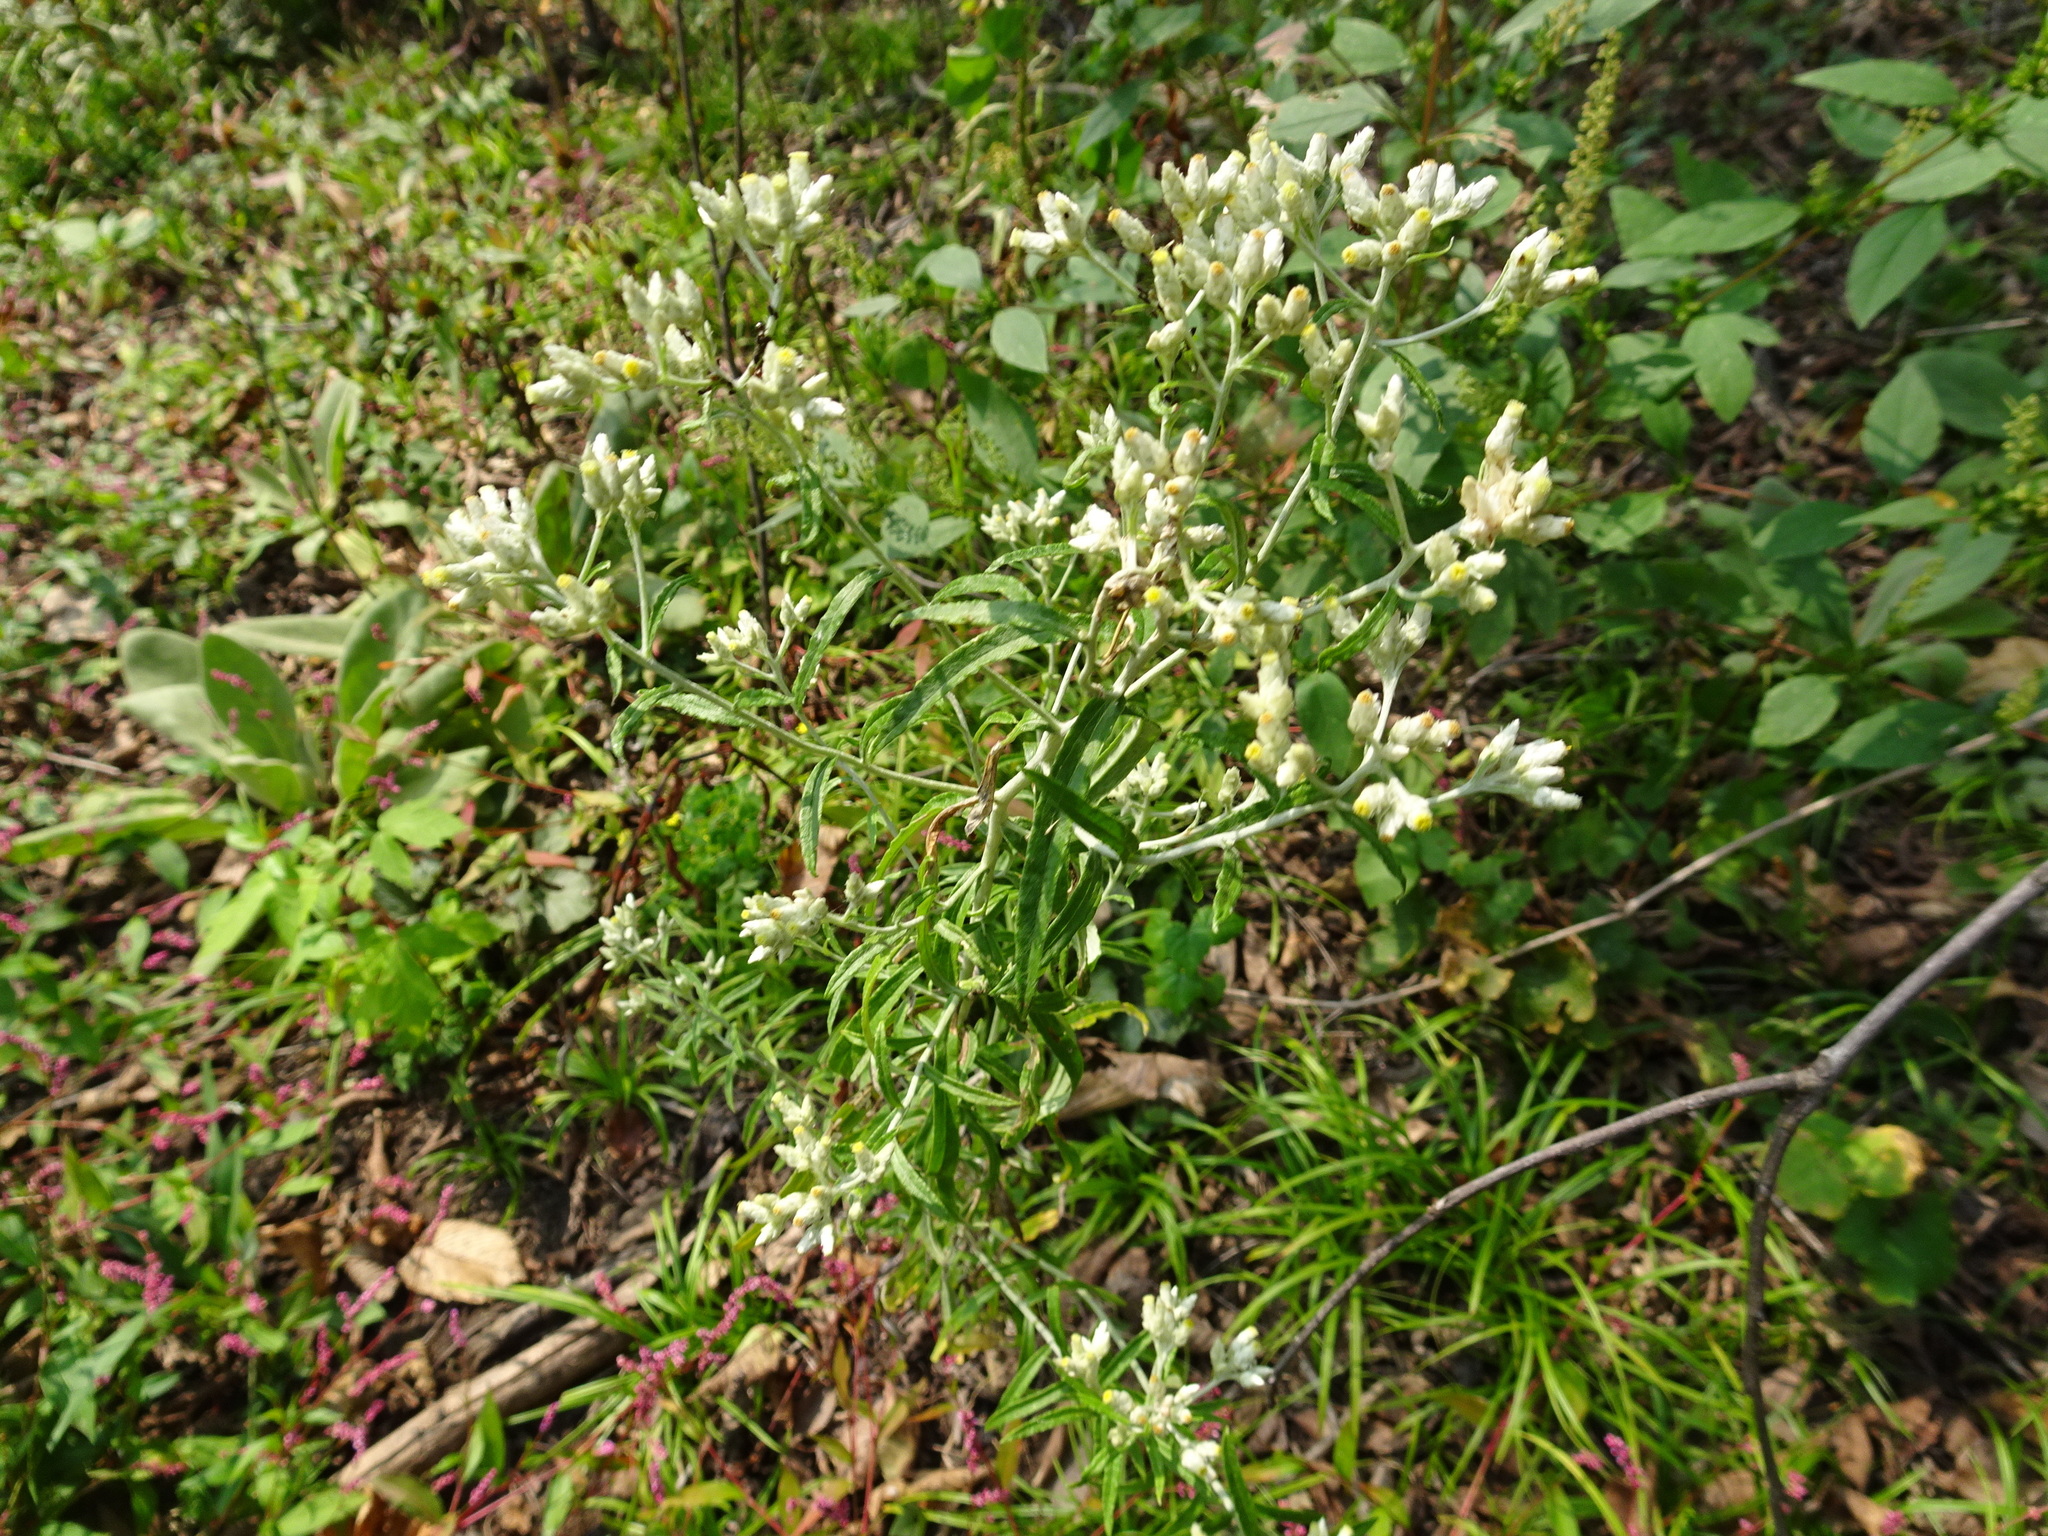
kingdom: Plantae
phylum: Tracheophyta
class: Magnoliopsida
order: Asterales
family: Asteraceae
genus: Pseudognaphalium
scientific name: Pseudognaphalium obtusifolium
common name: Eastern rabbit-tobacco
